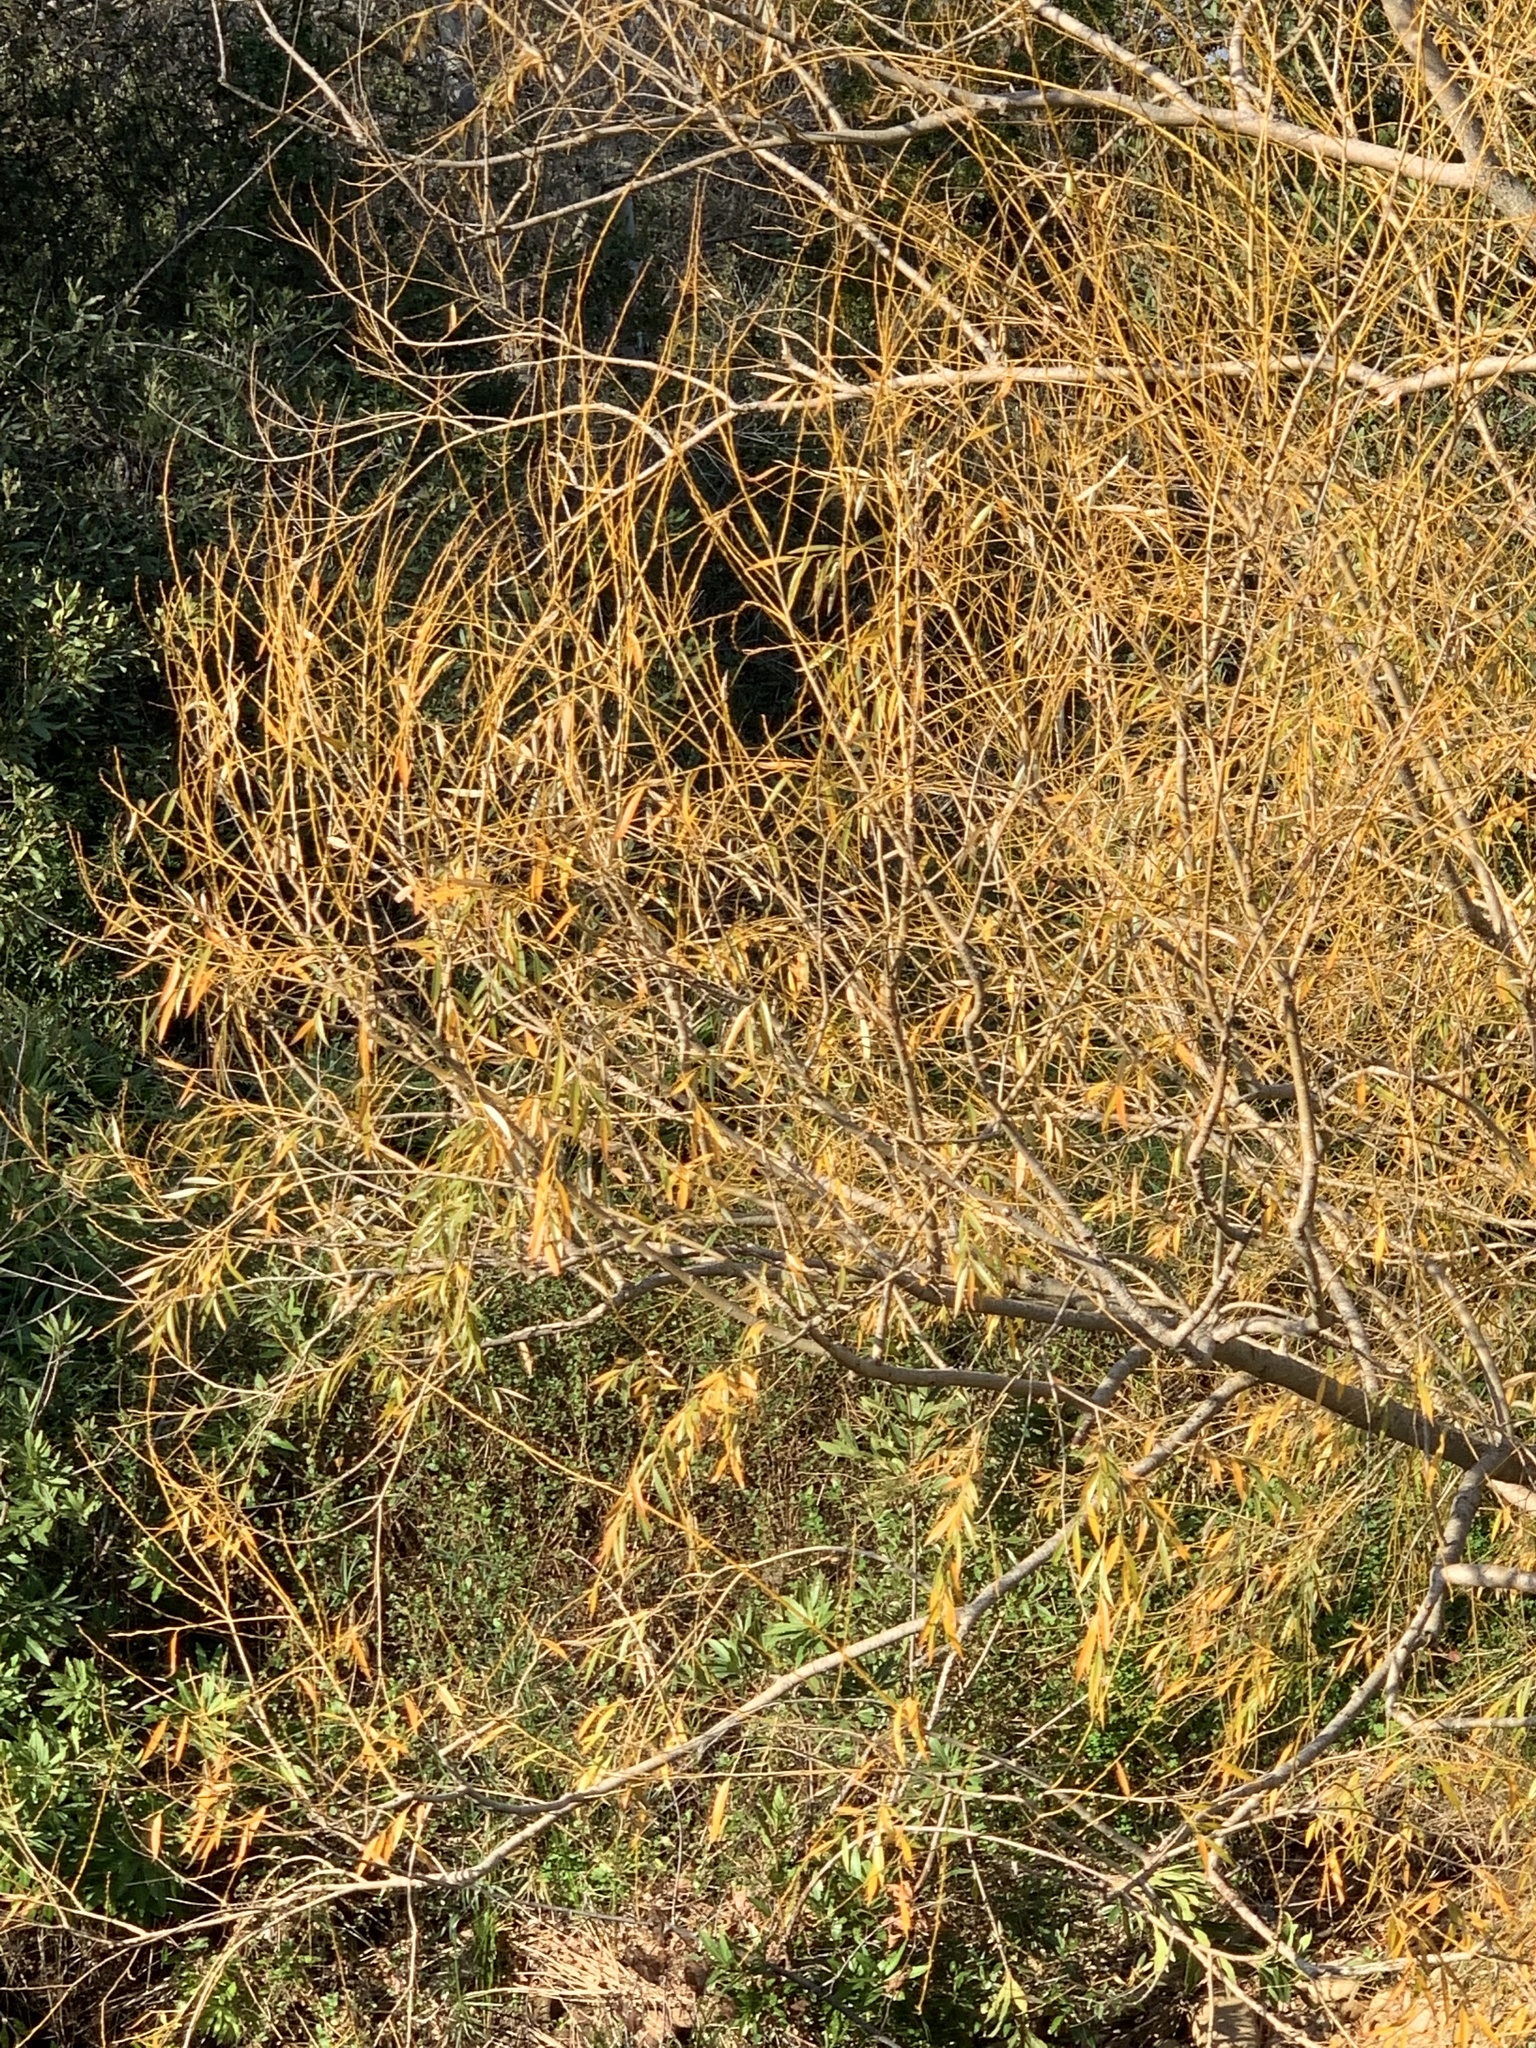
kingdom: Plantae
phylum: Tracheophyta
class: Magnoliopsida
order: Malpighiales
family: Salicaceae
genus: Salix
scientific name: Salix babylonica
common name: Weeping willow
